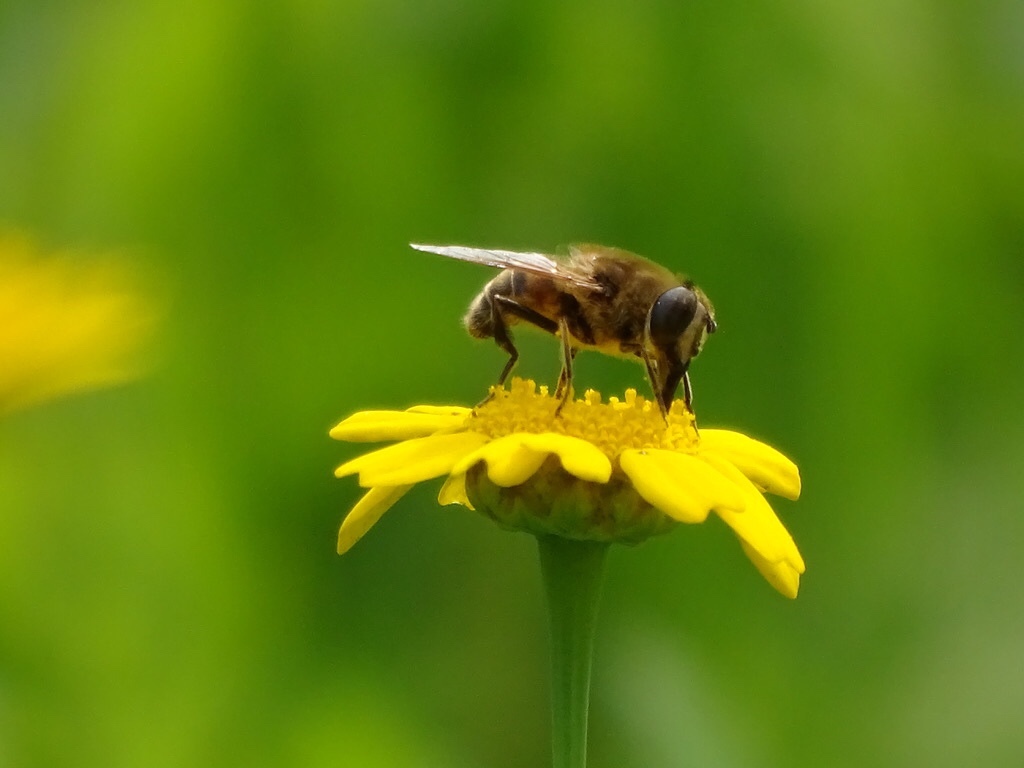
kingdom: Animalia
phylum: Arthropoda
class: Insecta
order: Diptera
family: Syrphidae
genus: Eristalis
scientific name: Eristalis tenax
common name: Drone fly
